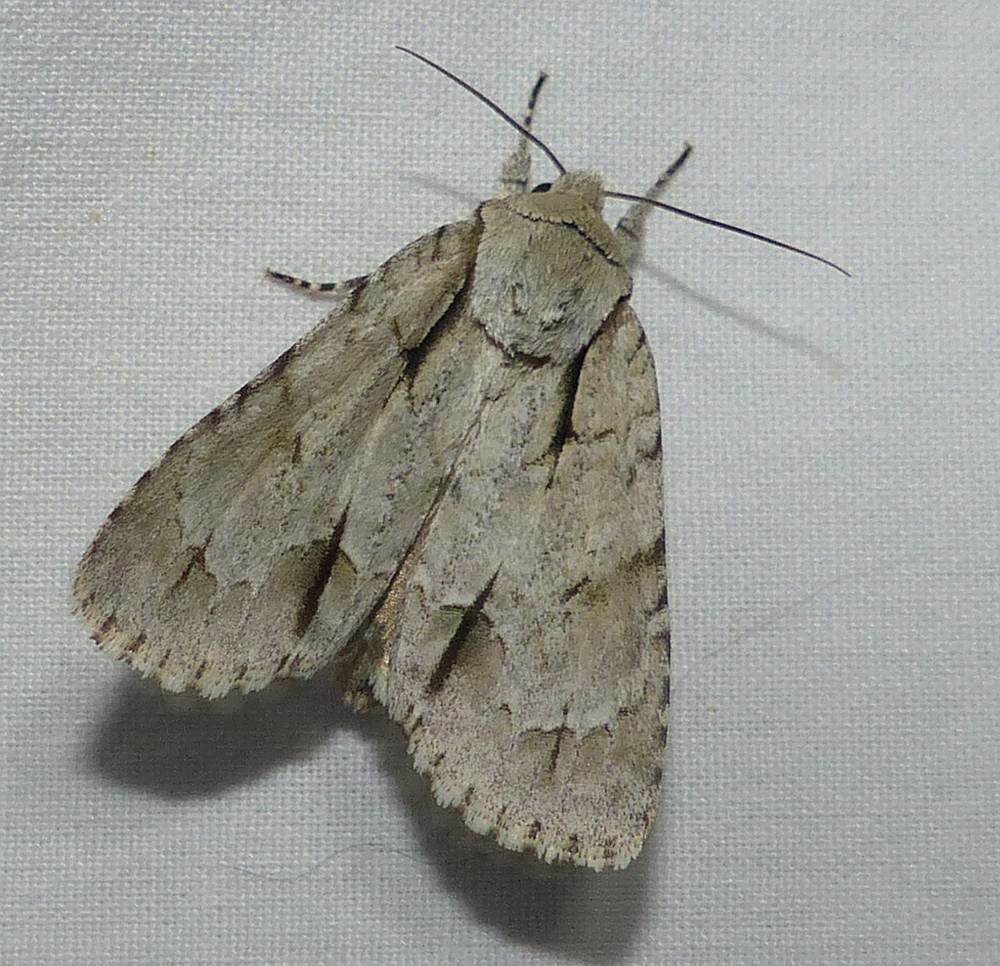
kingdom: Animalia
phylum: Arthropoda
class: Insecta
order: Lepidoptera
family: Noctuidae
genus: Acronicta
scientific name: Acronicta interrupta
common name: Interrupted dagger
